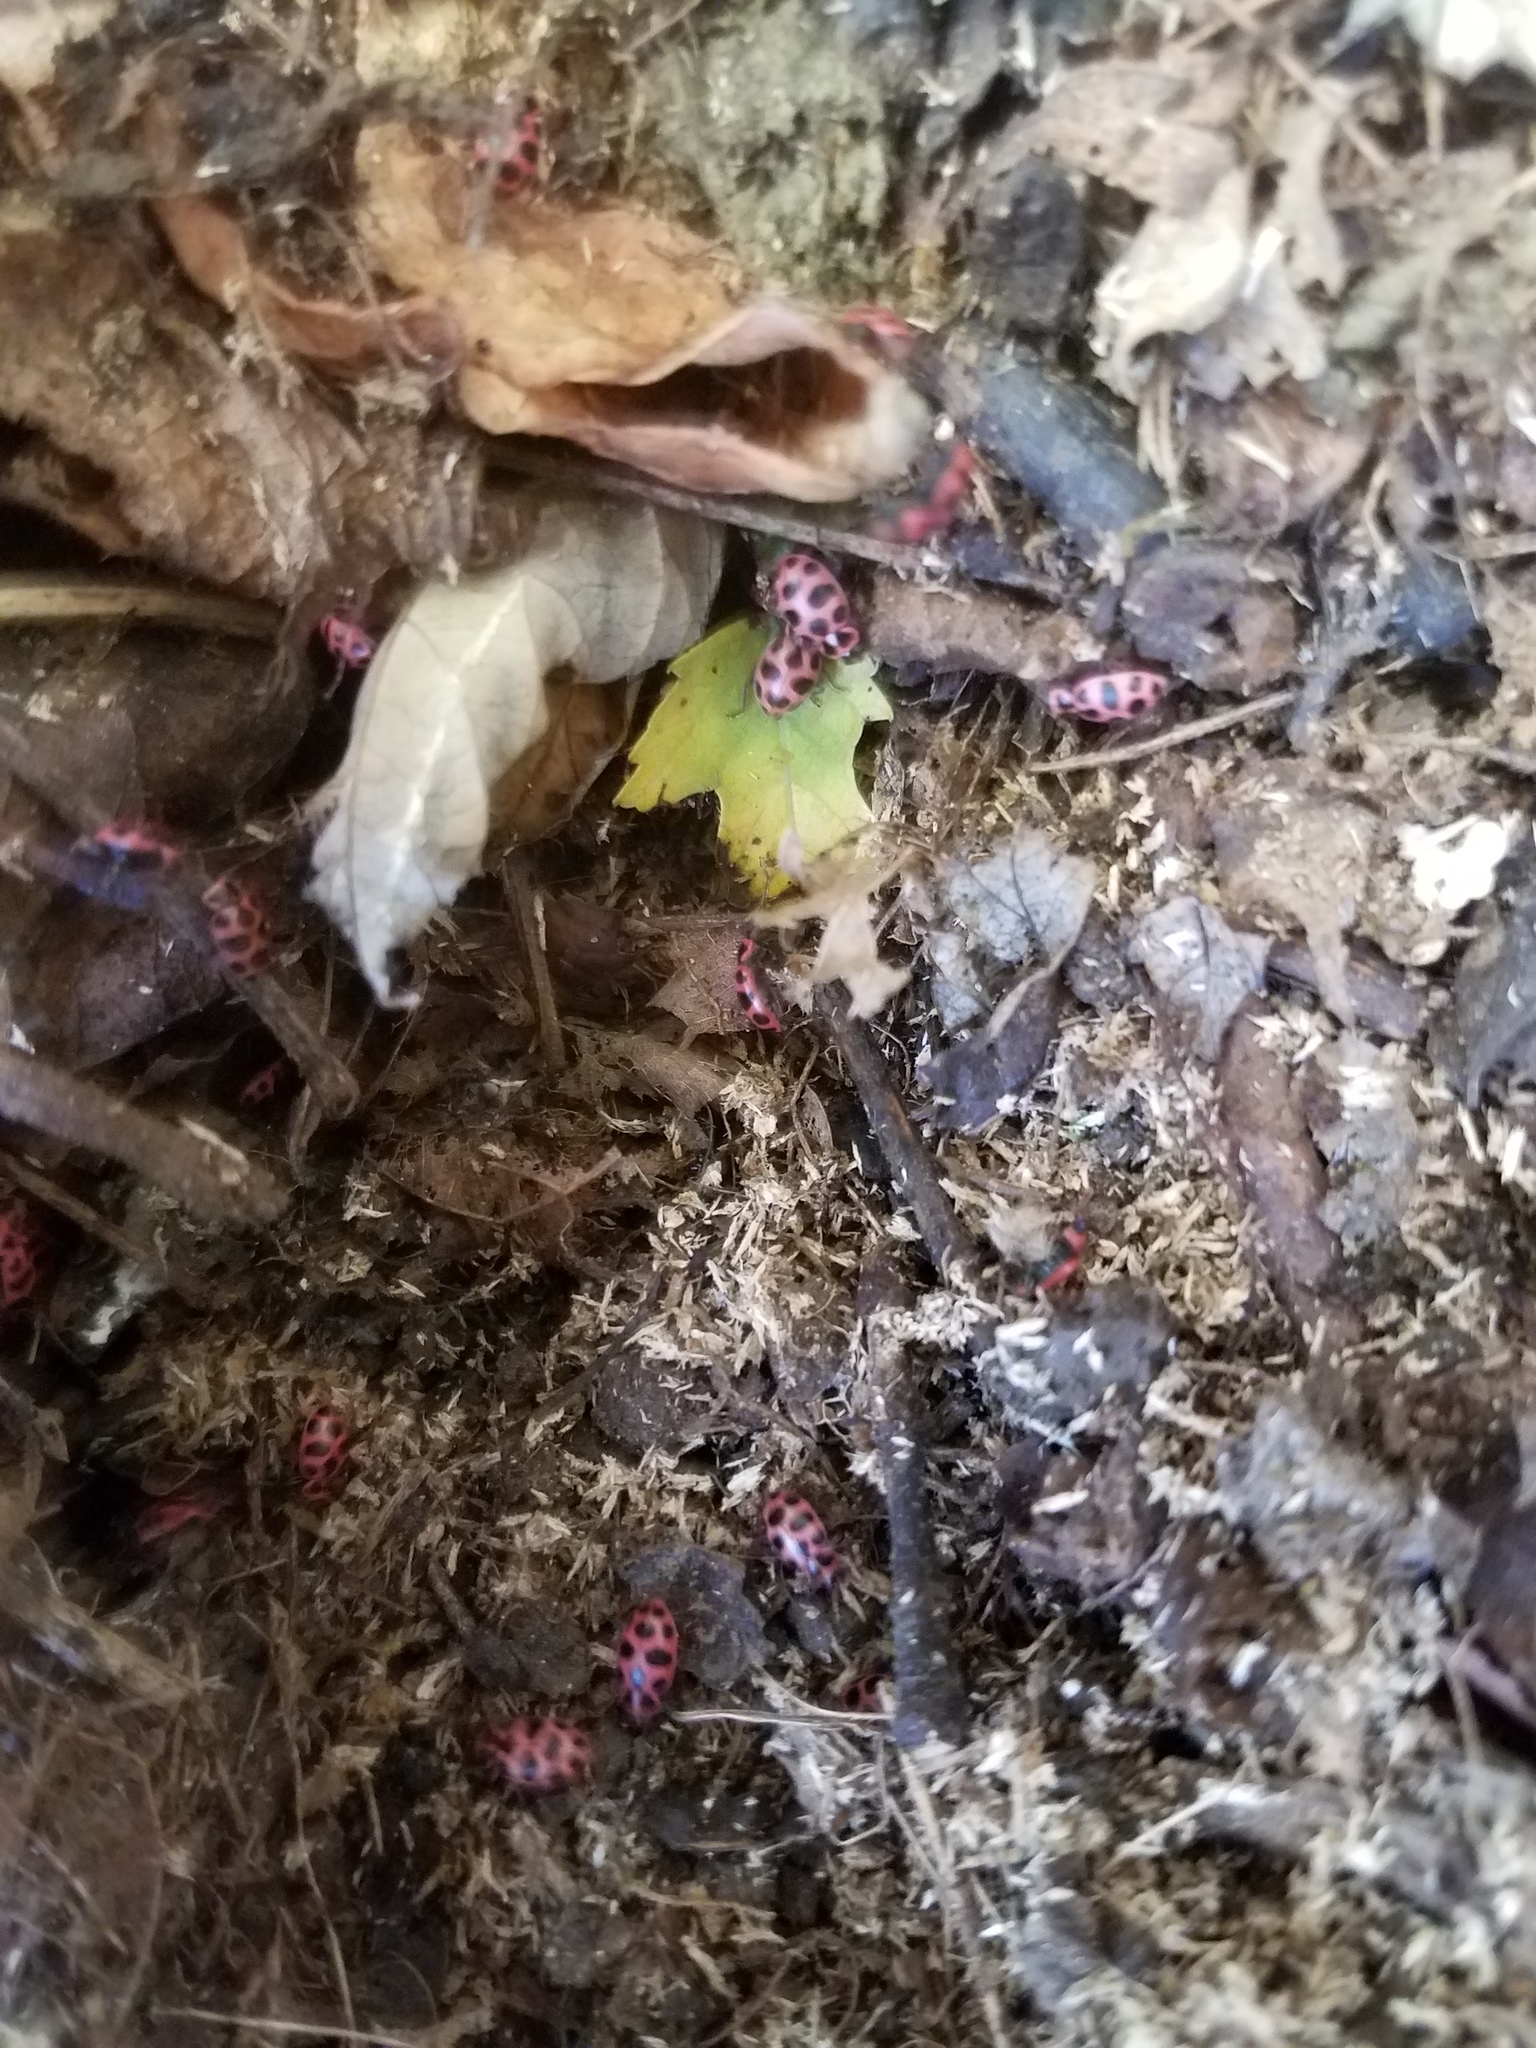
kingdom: Animalia
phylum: Arthropoda
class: Insecta
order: Coleoptera
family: Coccinellidae
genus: Coleomegilla
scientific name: Coleomegilla maculata
